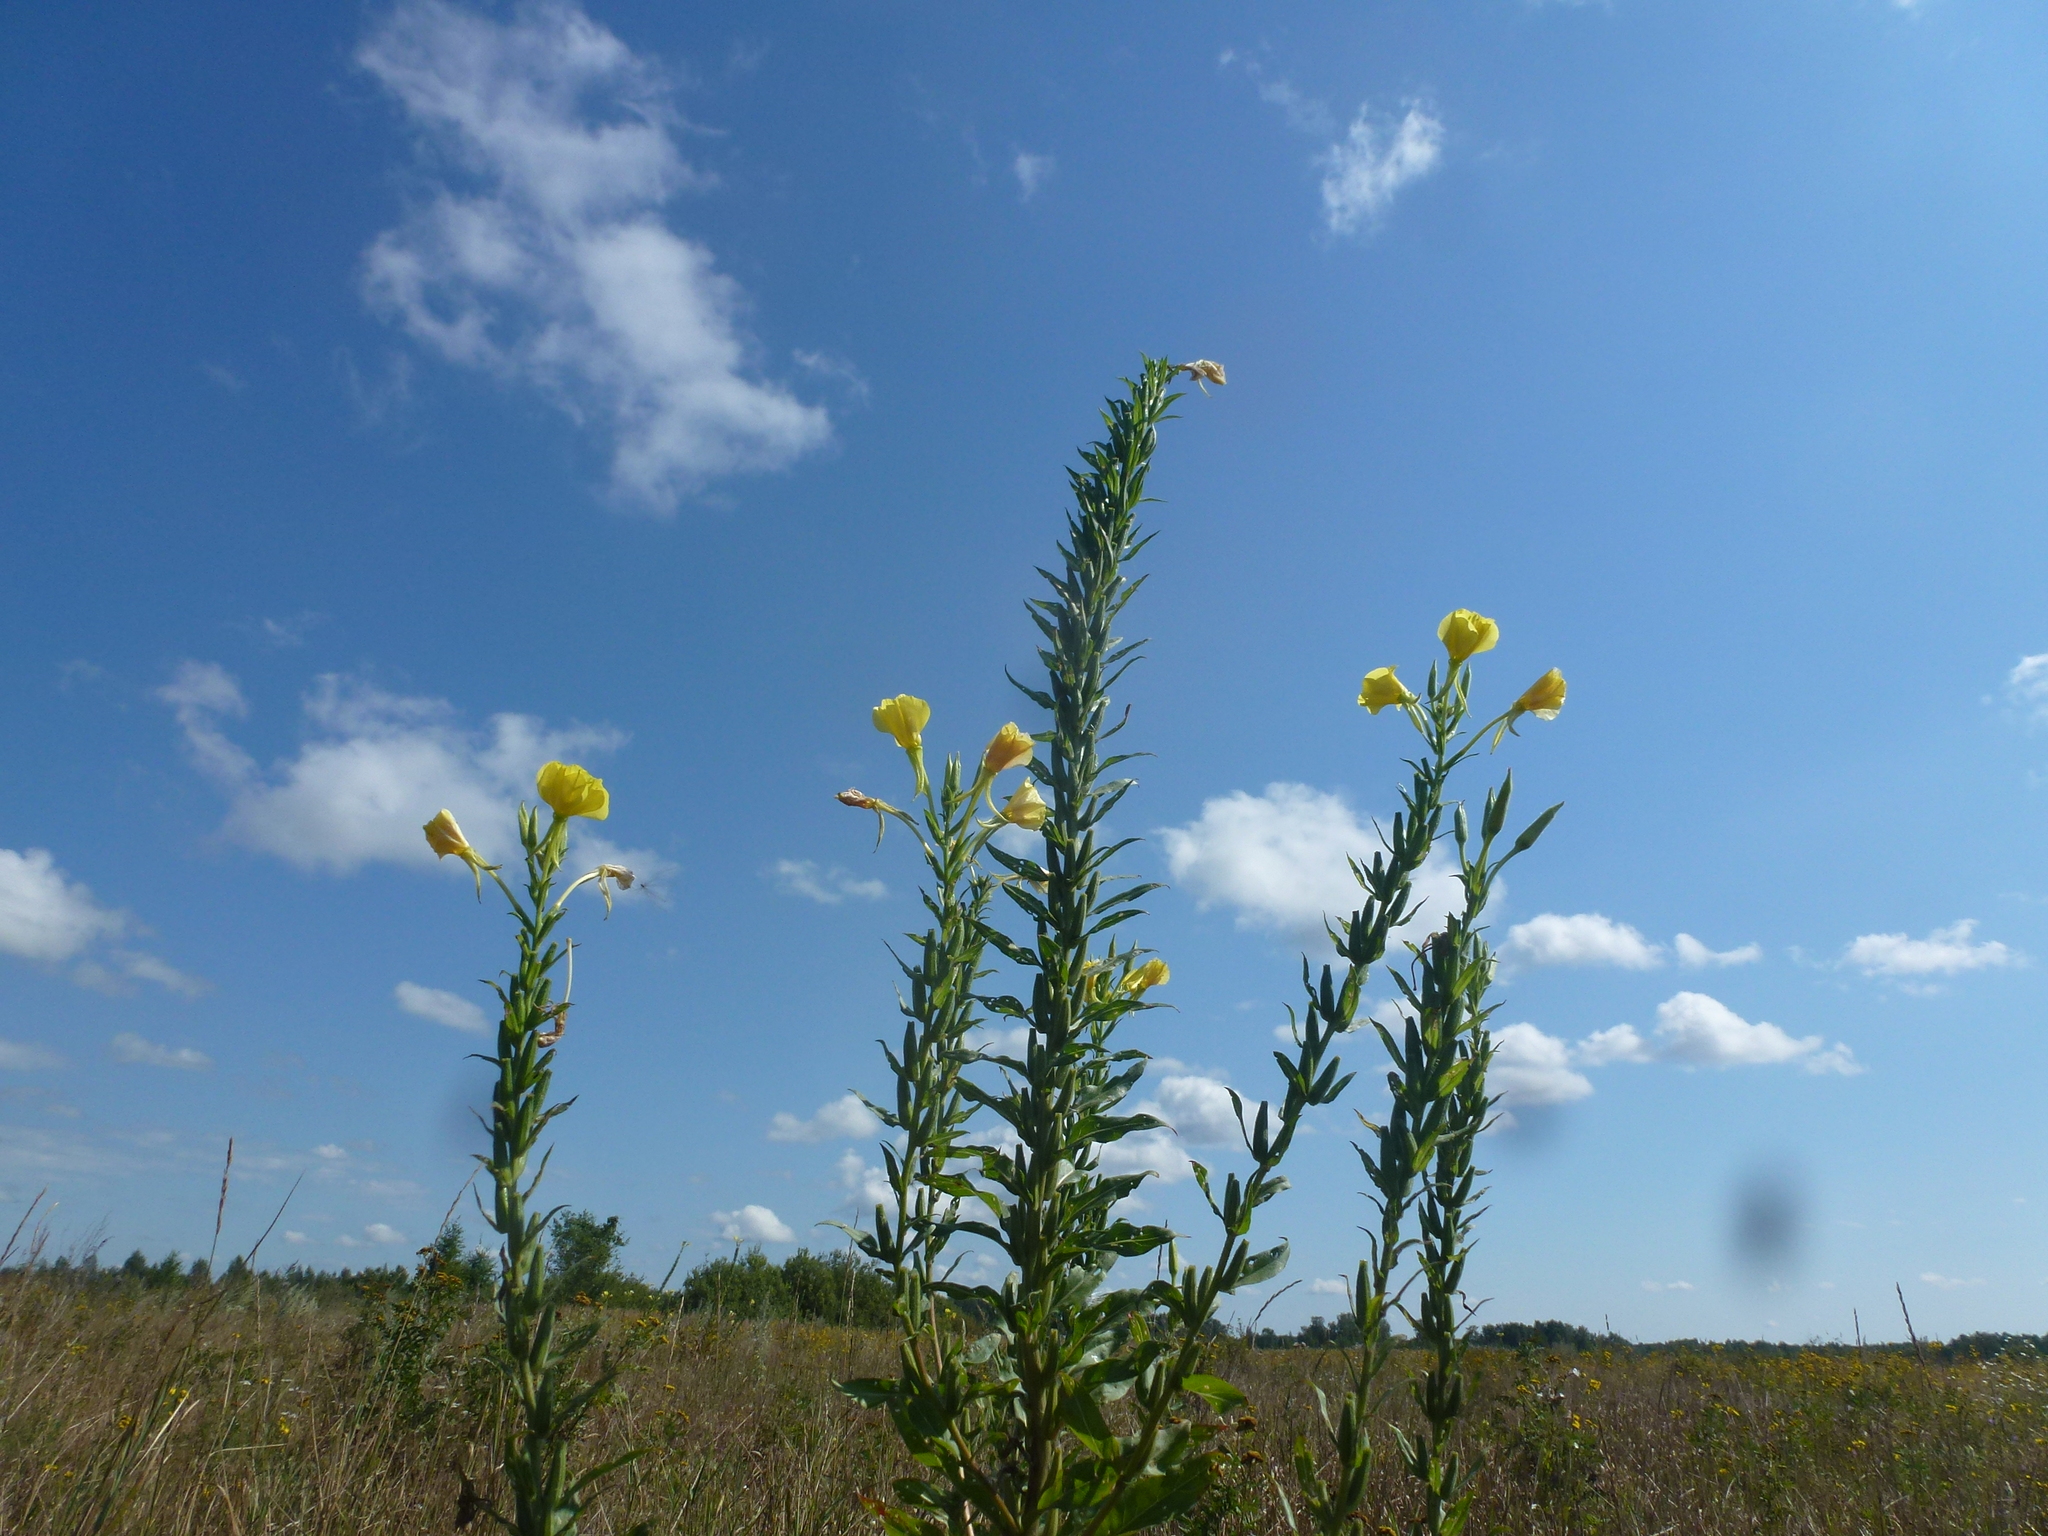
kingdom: Plantae
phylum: Tracheophyta
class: Magnoliopsida
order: Myrtales
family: Onagraceae
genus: Oenothera
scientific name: Oenothera biennis
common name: Common evening-primrose
